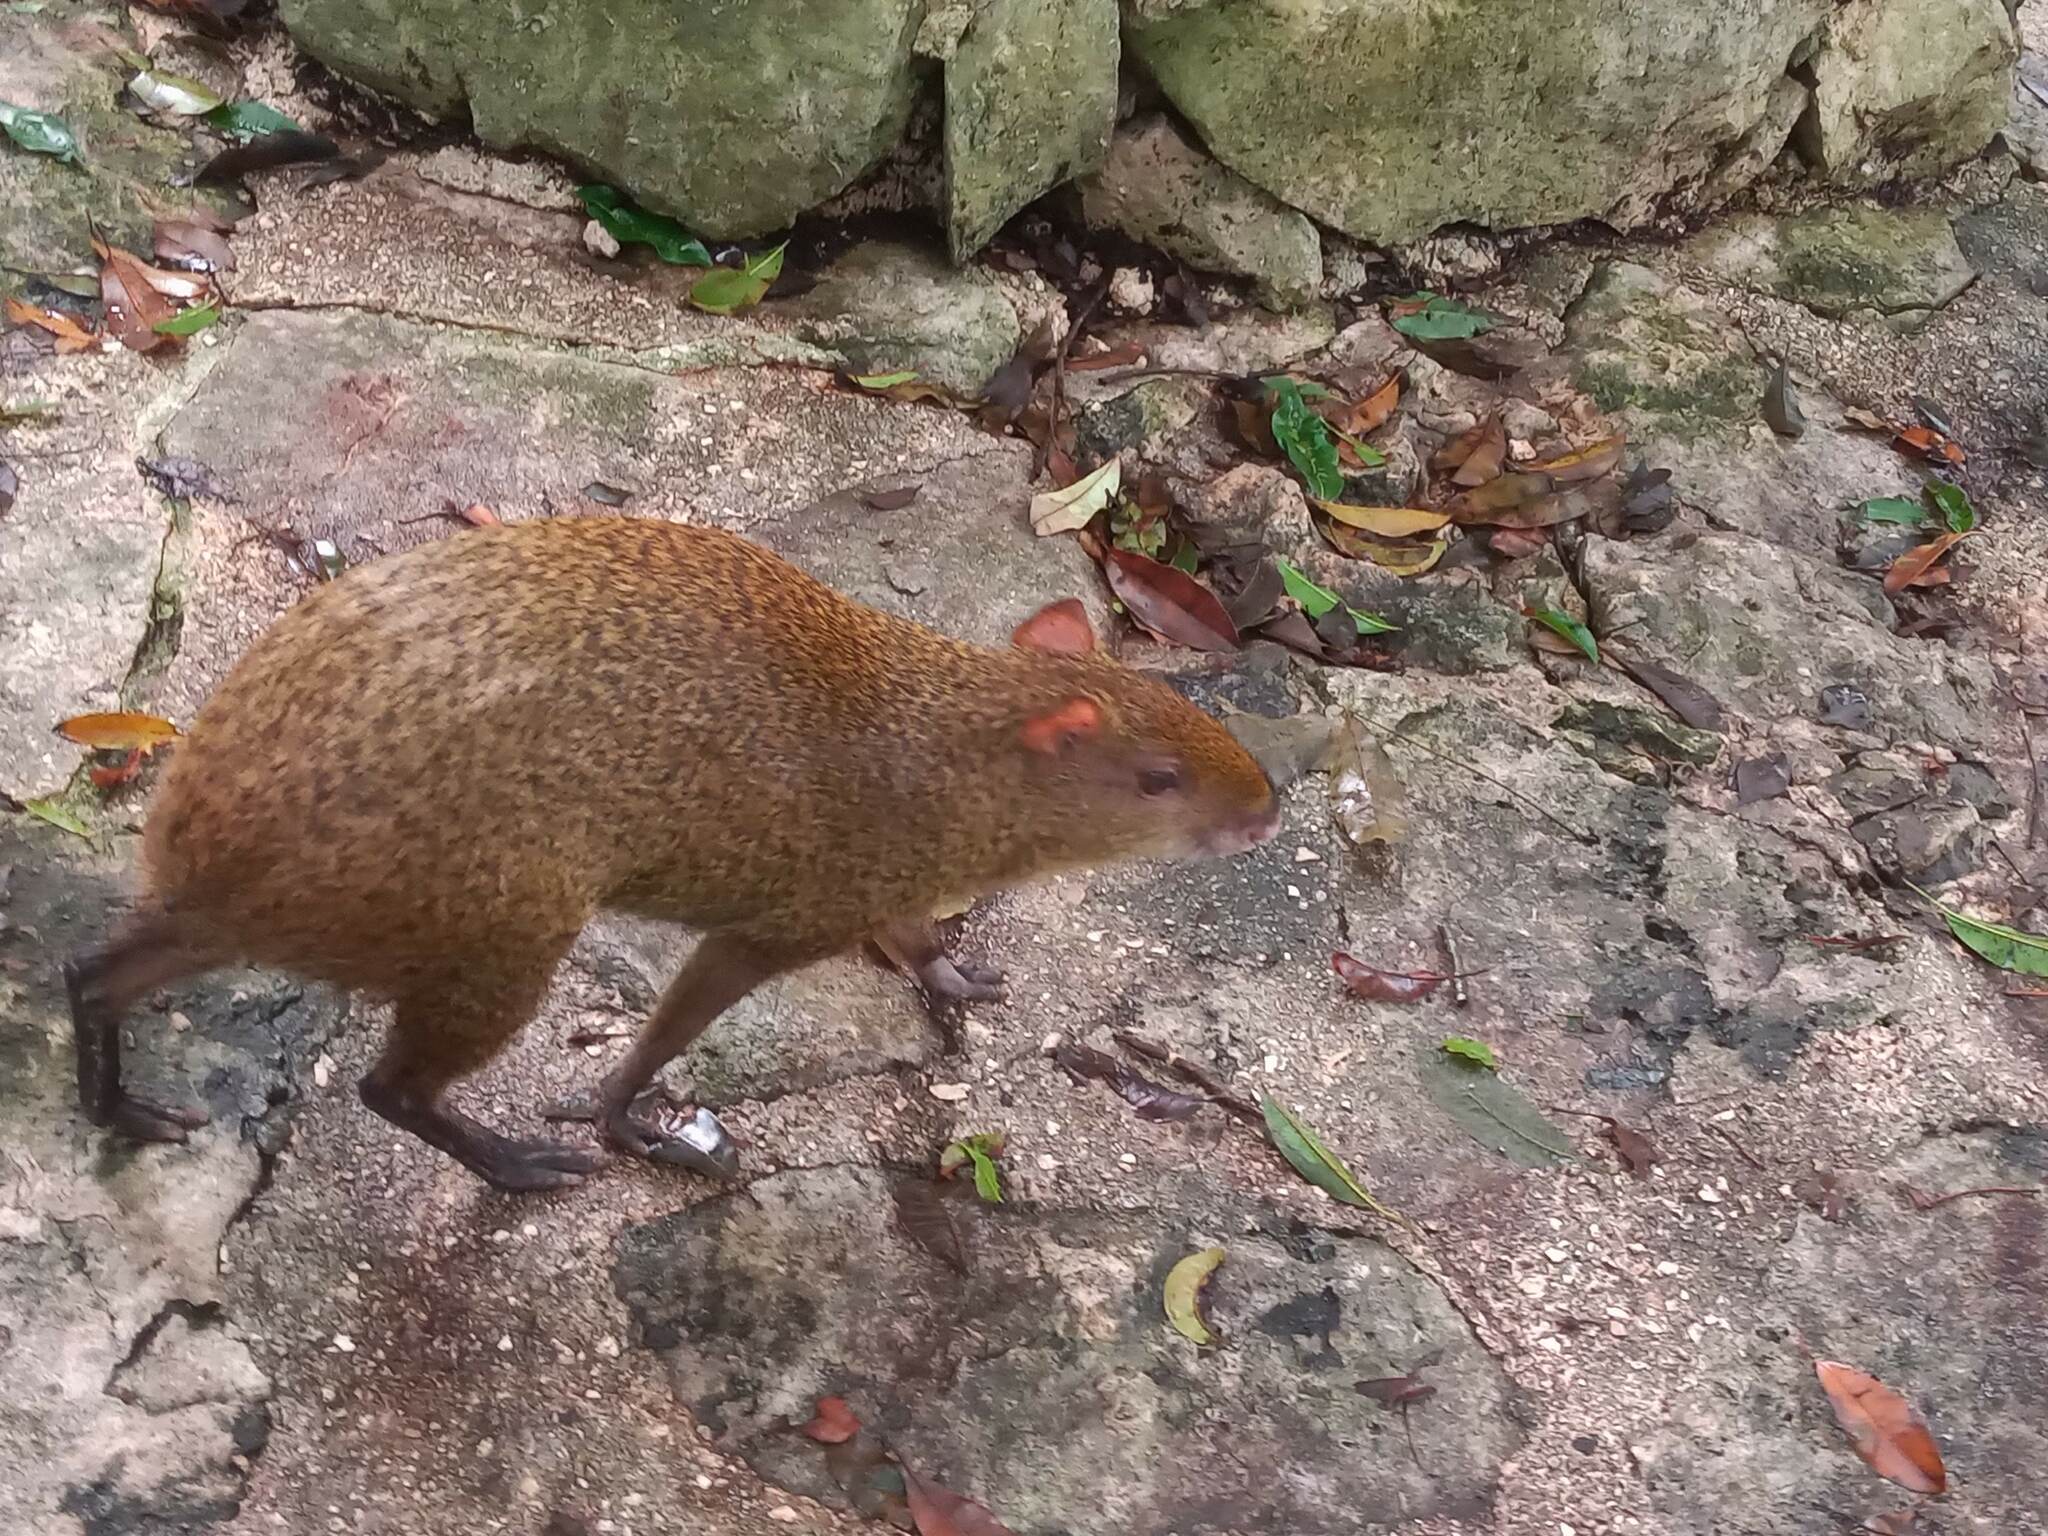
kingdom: Animalia
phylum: Chordata
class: Mammalia
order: Rodentia
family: Dasyproctidae
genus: Dasyprocta
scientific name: Dasyprocta punctata
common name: Central american agouti
